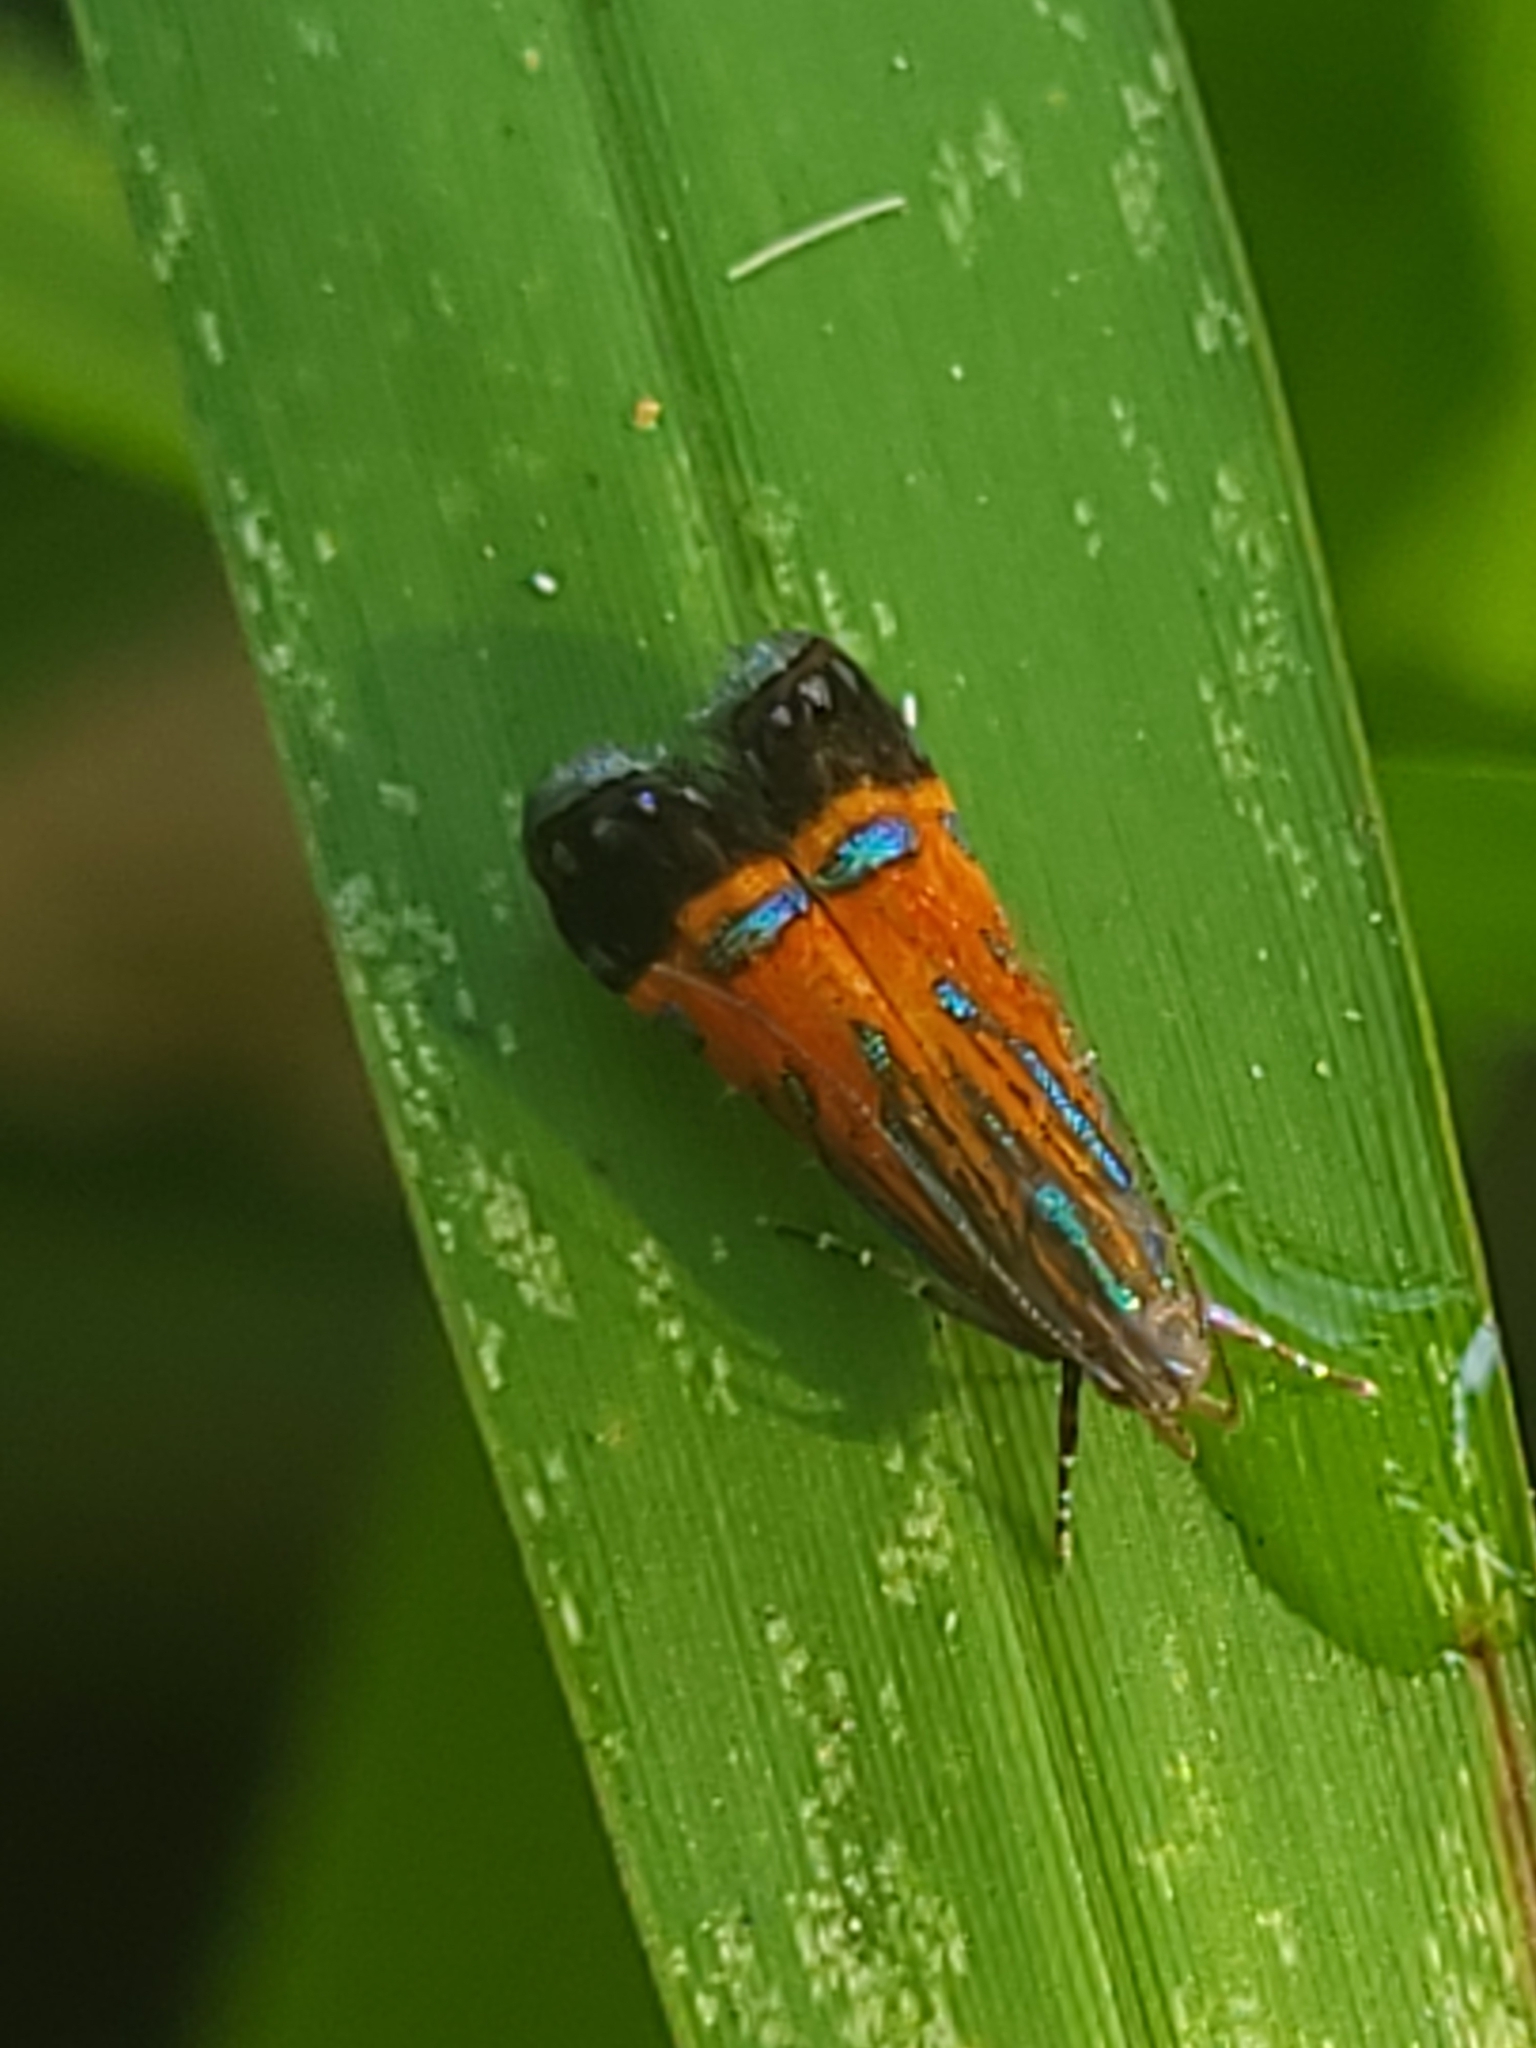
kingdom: Animalia
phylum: Arthropoda
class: Insecta
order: Lepidoptera
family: Gelechiidae
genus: Tricyanaula
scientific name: Tricyanaula aurantiaca
